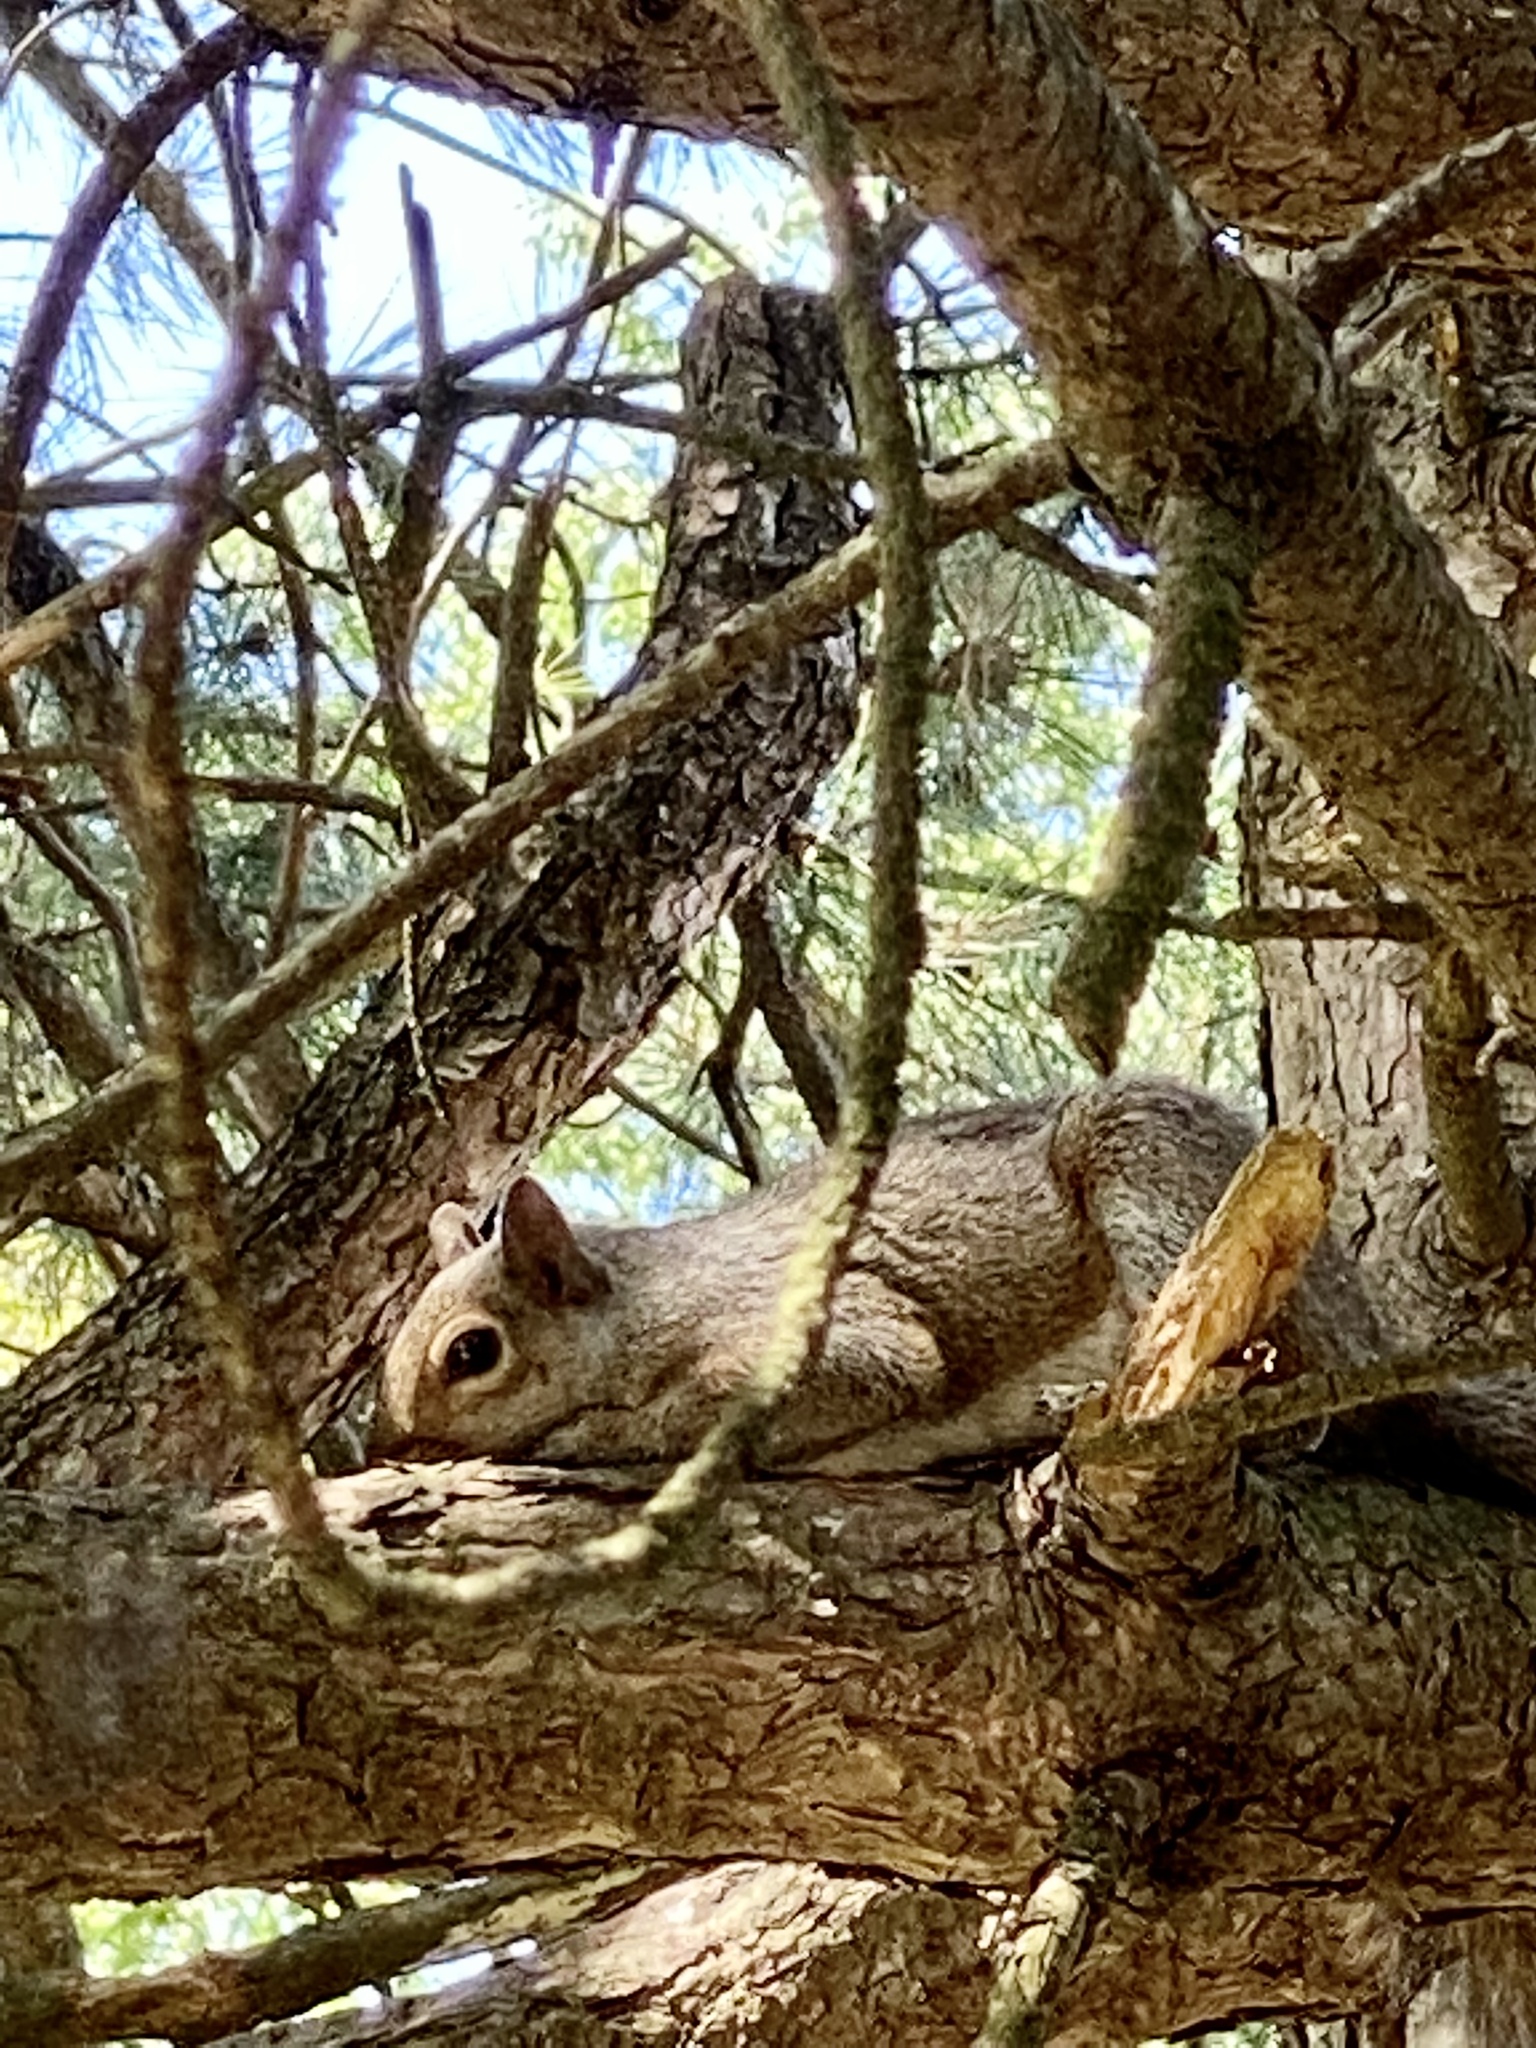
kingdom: Animalia
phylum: Chordata
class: Mammalia
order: Rodentia
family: Sciuridae
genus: Sciurus
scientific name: Sciurus carolinensis
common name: Eastern gray squirrel
